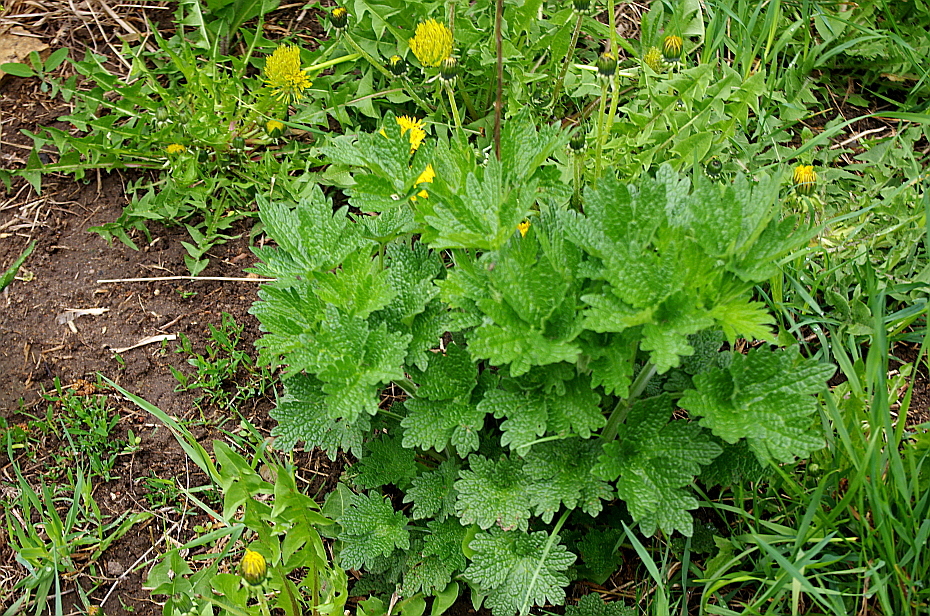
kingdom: Plantae
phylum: Tracheophyta
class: Magnoliopsida
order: Lamiales
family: Lamiaceae
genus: Leonurus
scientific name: Leonurus quinquelobatus
